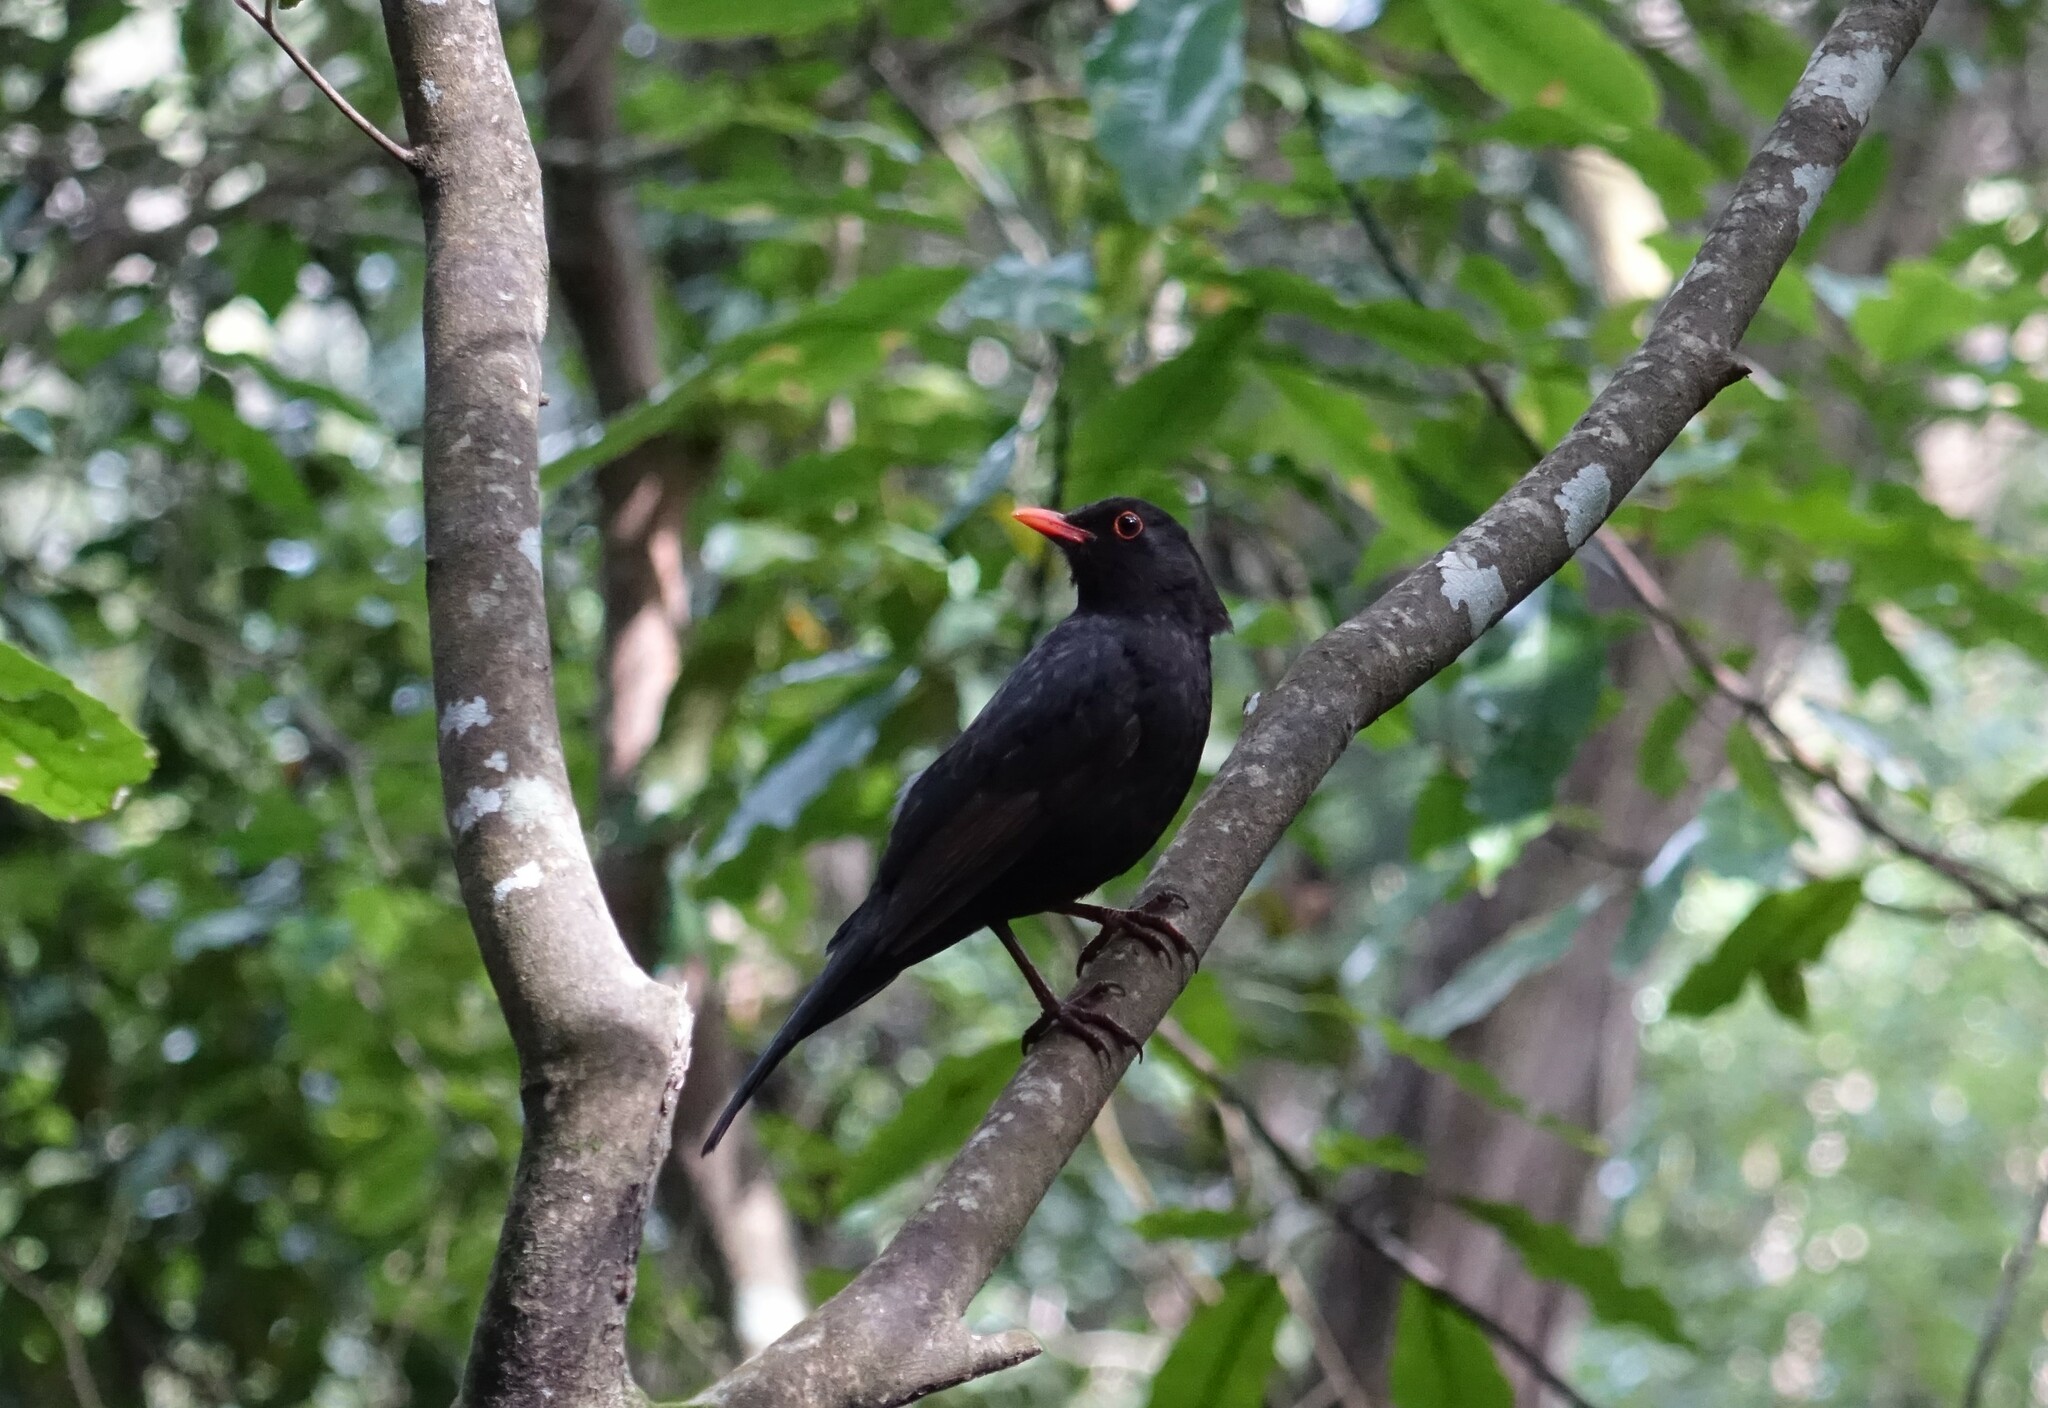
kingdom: Animalia
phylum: Chordata
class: Aves
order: Passeriformes
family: Turdidae
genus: Turdus
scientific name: Turdus merula
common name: Common blackbird
